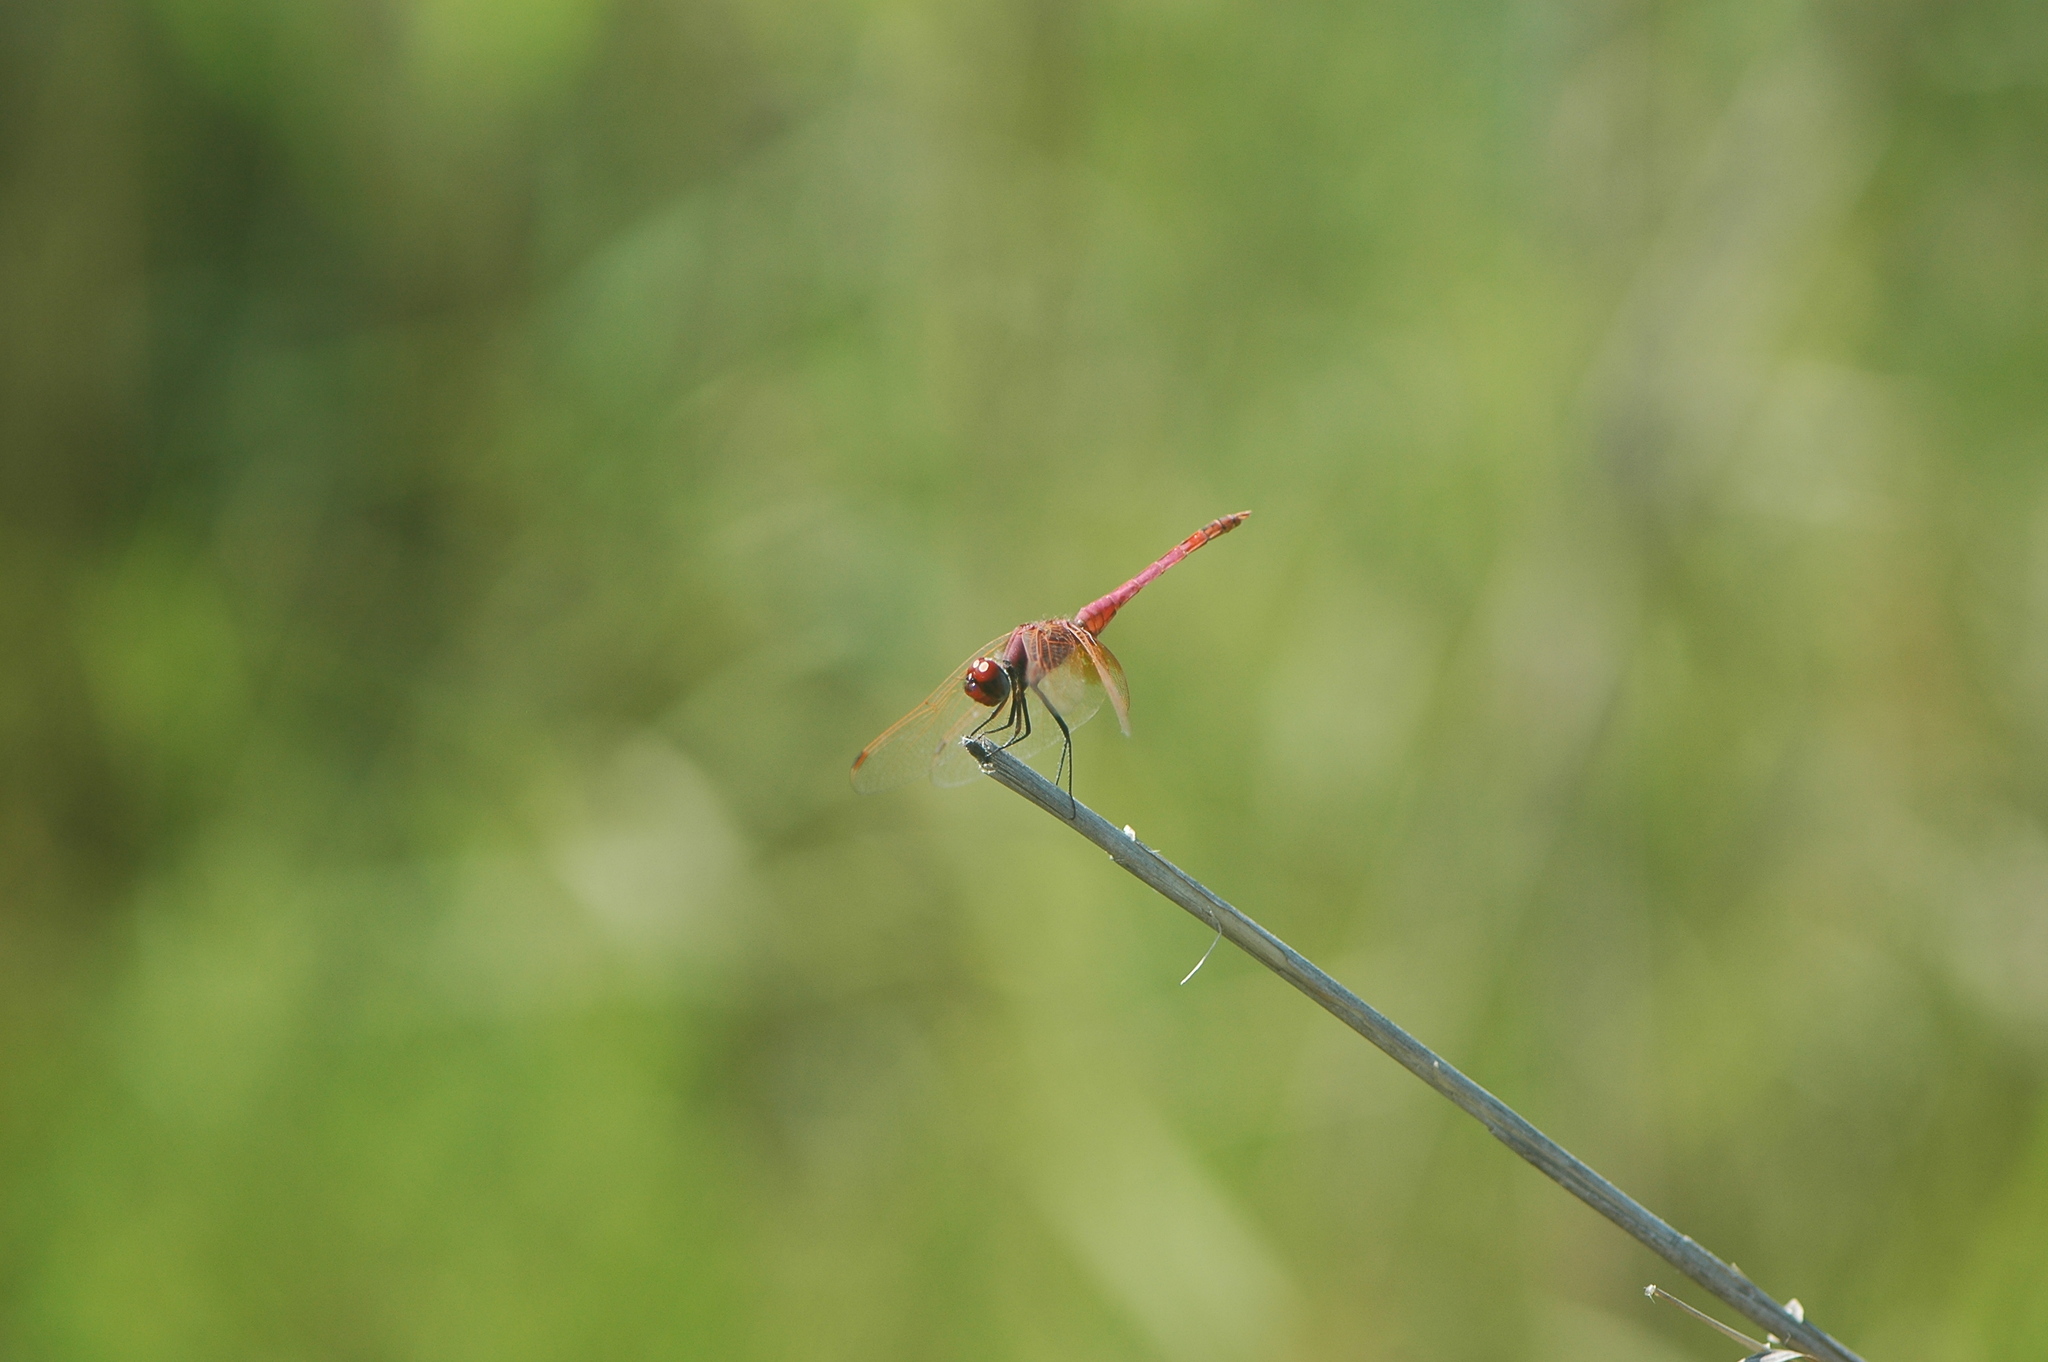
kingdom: Animalia
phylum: Arthropoda
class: Insecta
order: Odonata
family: Libellulidae
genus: Trithemis
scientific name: Trithemis annulata
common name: Violet dropwing
